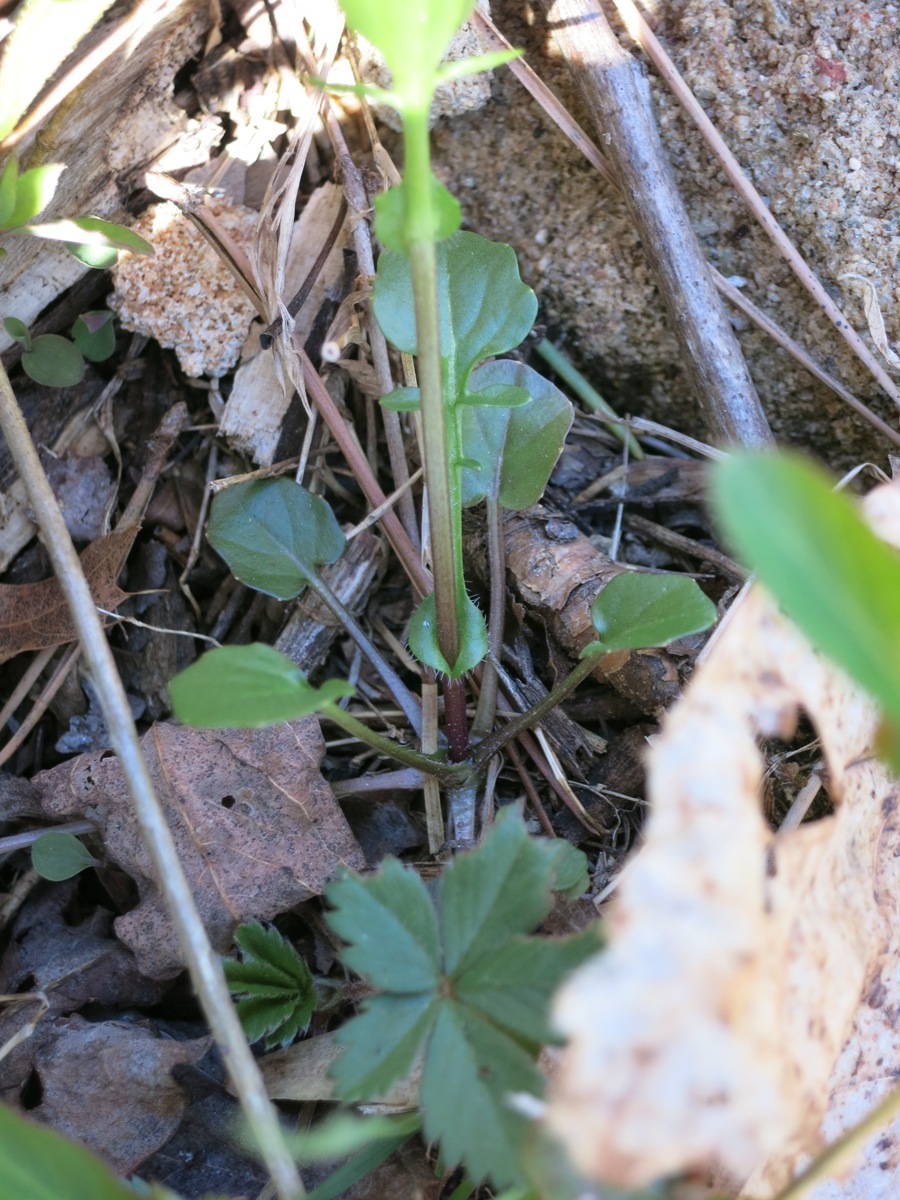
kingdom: Plantae
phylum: Tracheophyta
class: Magnoliopsida
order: Brassicales
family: Brassicaceae
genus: Barbarea
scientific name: Barbarea vulgaris
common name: Cressy-greens
